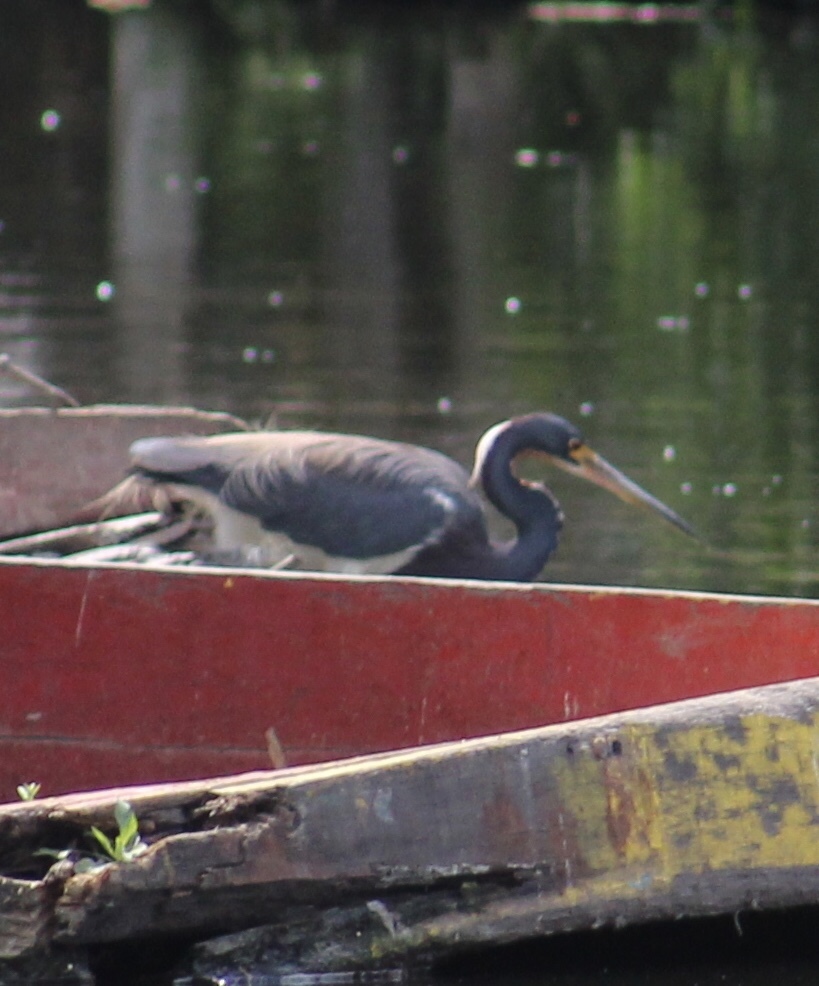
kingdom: Animalia
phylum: Chordata
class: Aves
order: Pelecaniformes
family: Ardeidae
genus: Egretta
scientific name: Egretta tricolor
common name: Tricolored heron
